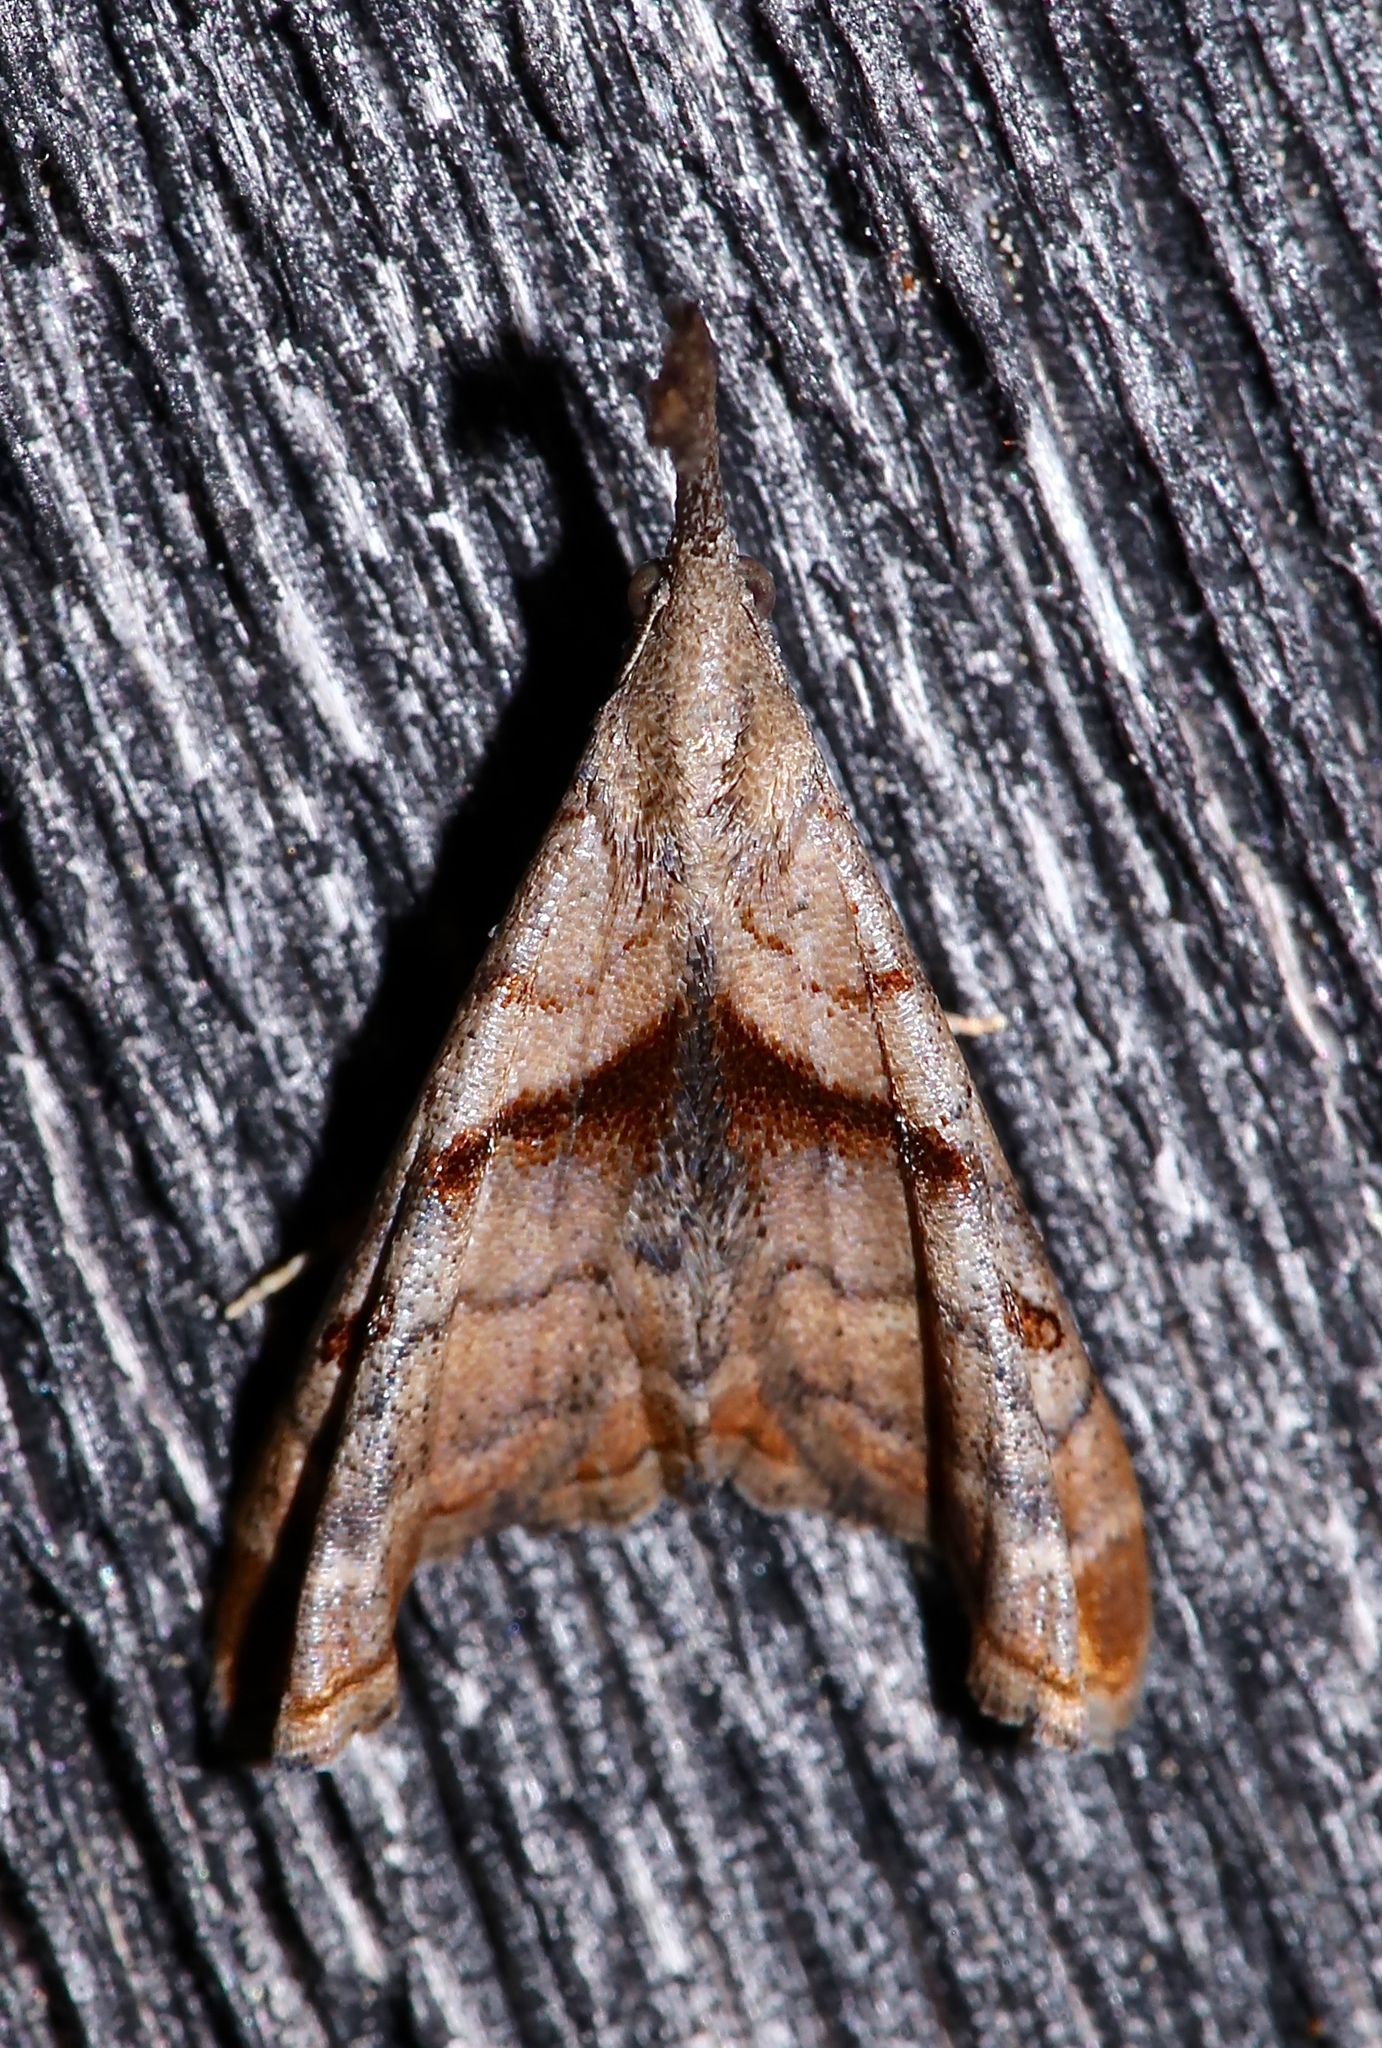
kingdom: Animalia
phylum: Arthropoda
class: Insecta
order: Lepidoptera
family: Erebidae
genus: Palthis
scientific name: Palthis angulalis
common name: Dark-spotted palthis moth
